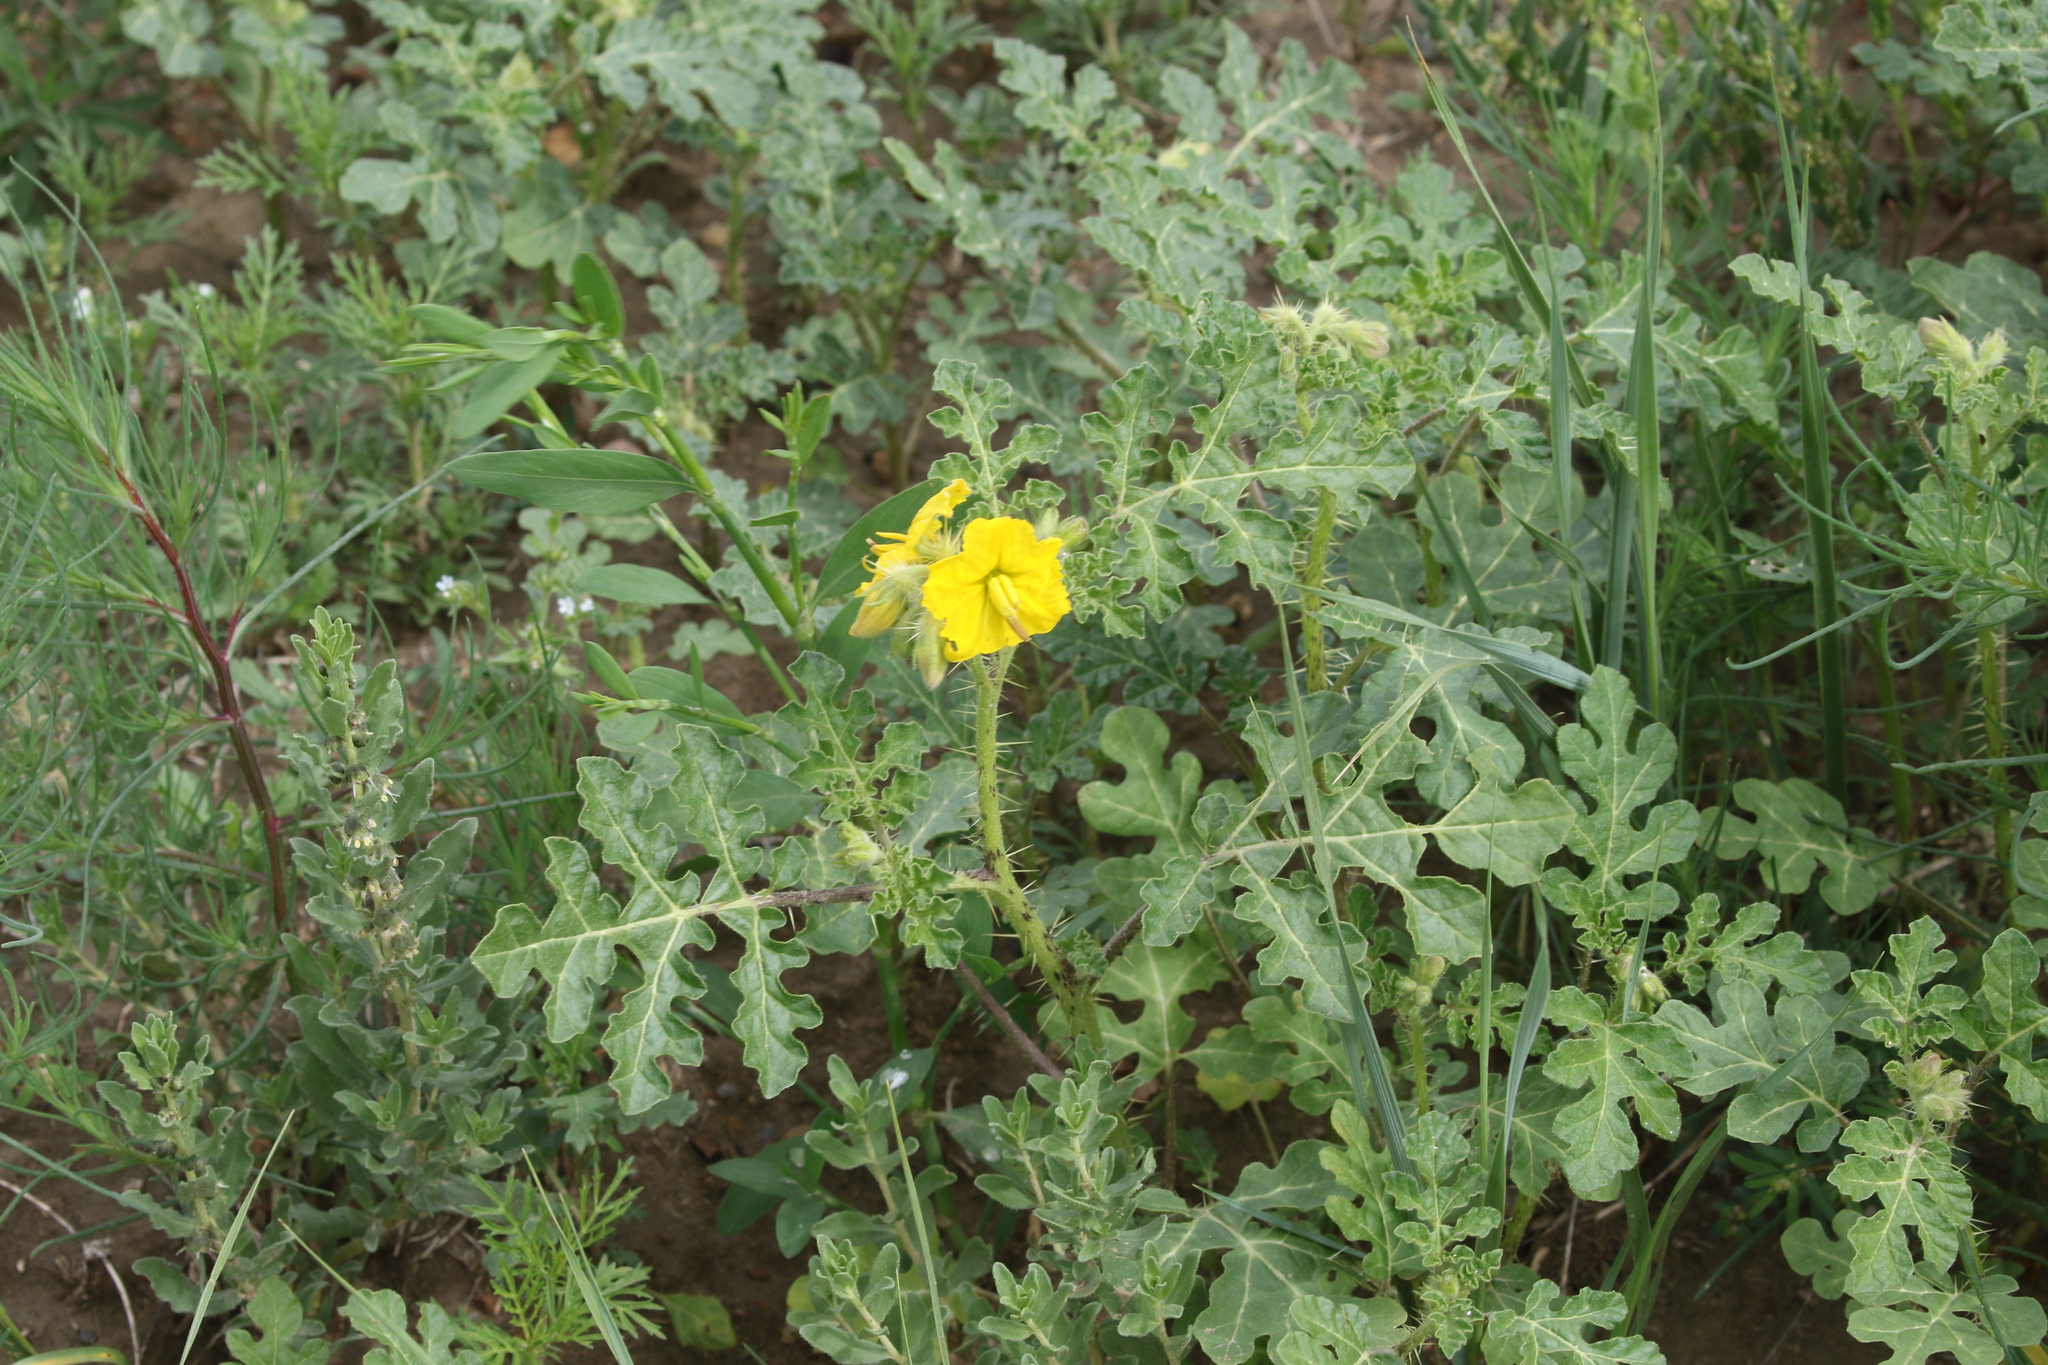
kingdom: Plantae
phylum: Tracheophyta
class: Magnoliopsida
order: Solanales
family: Solanaceae
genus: Solanum
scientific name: Solanum angustifolium
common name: Buffalobur nightshade
